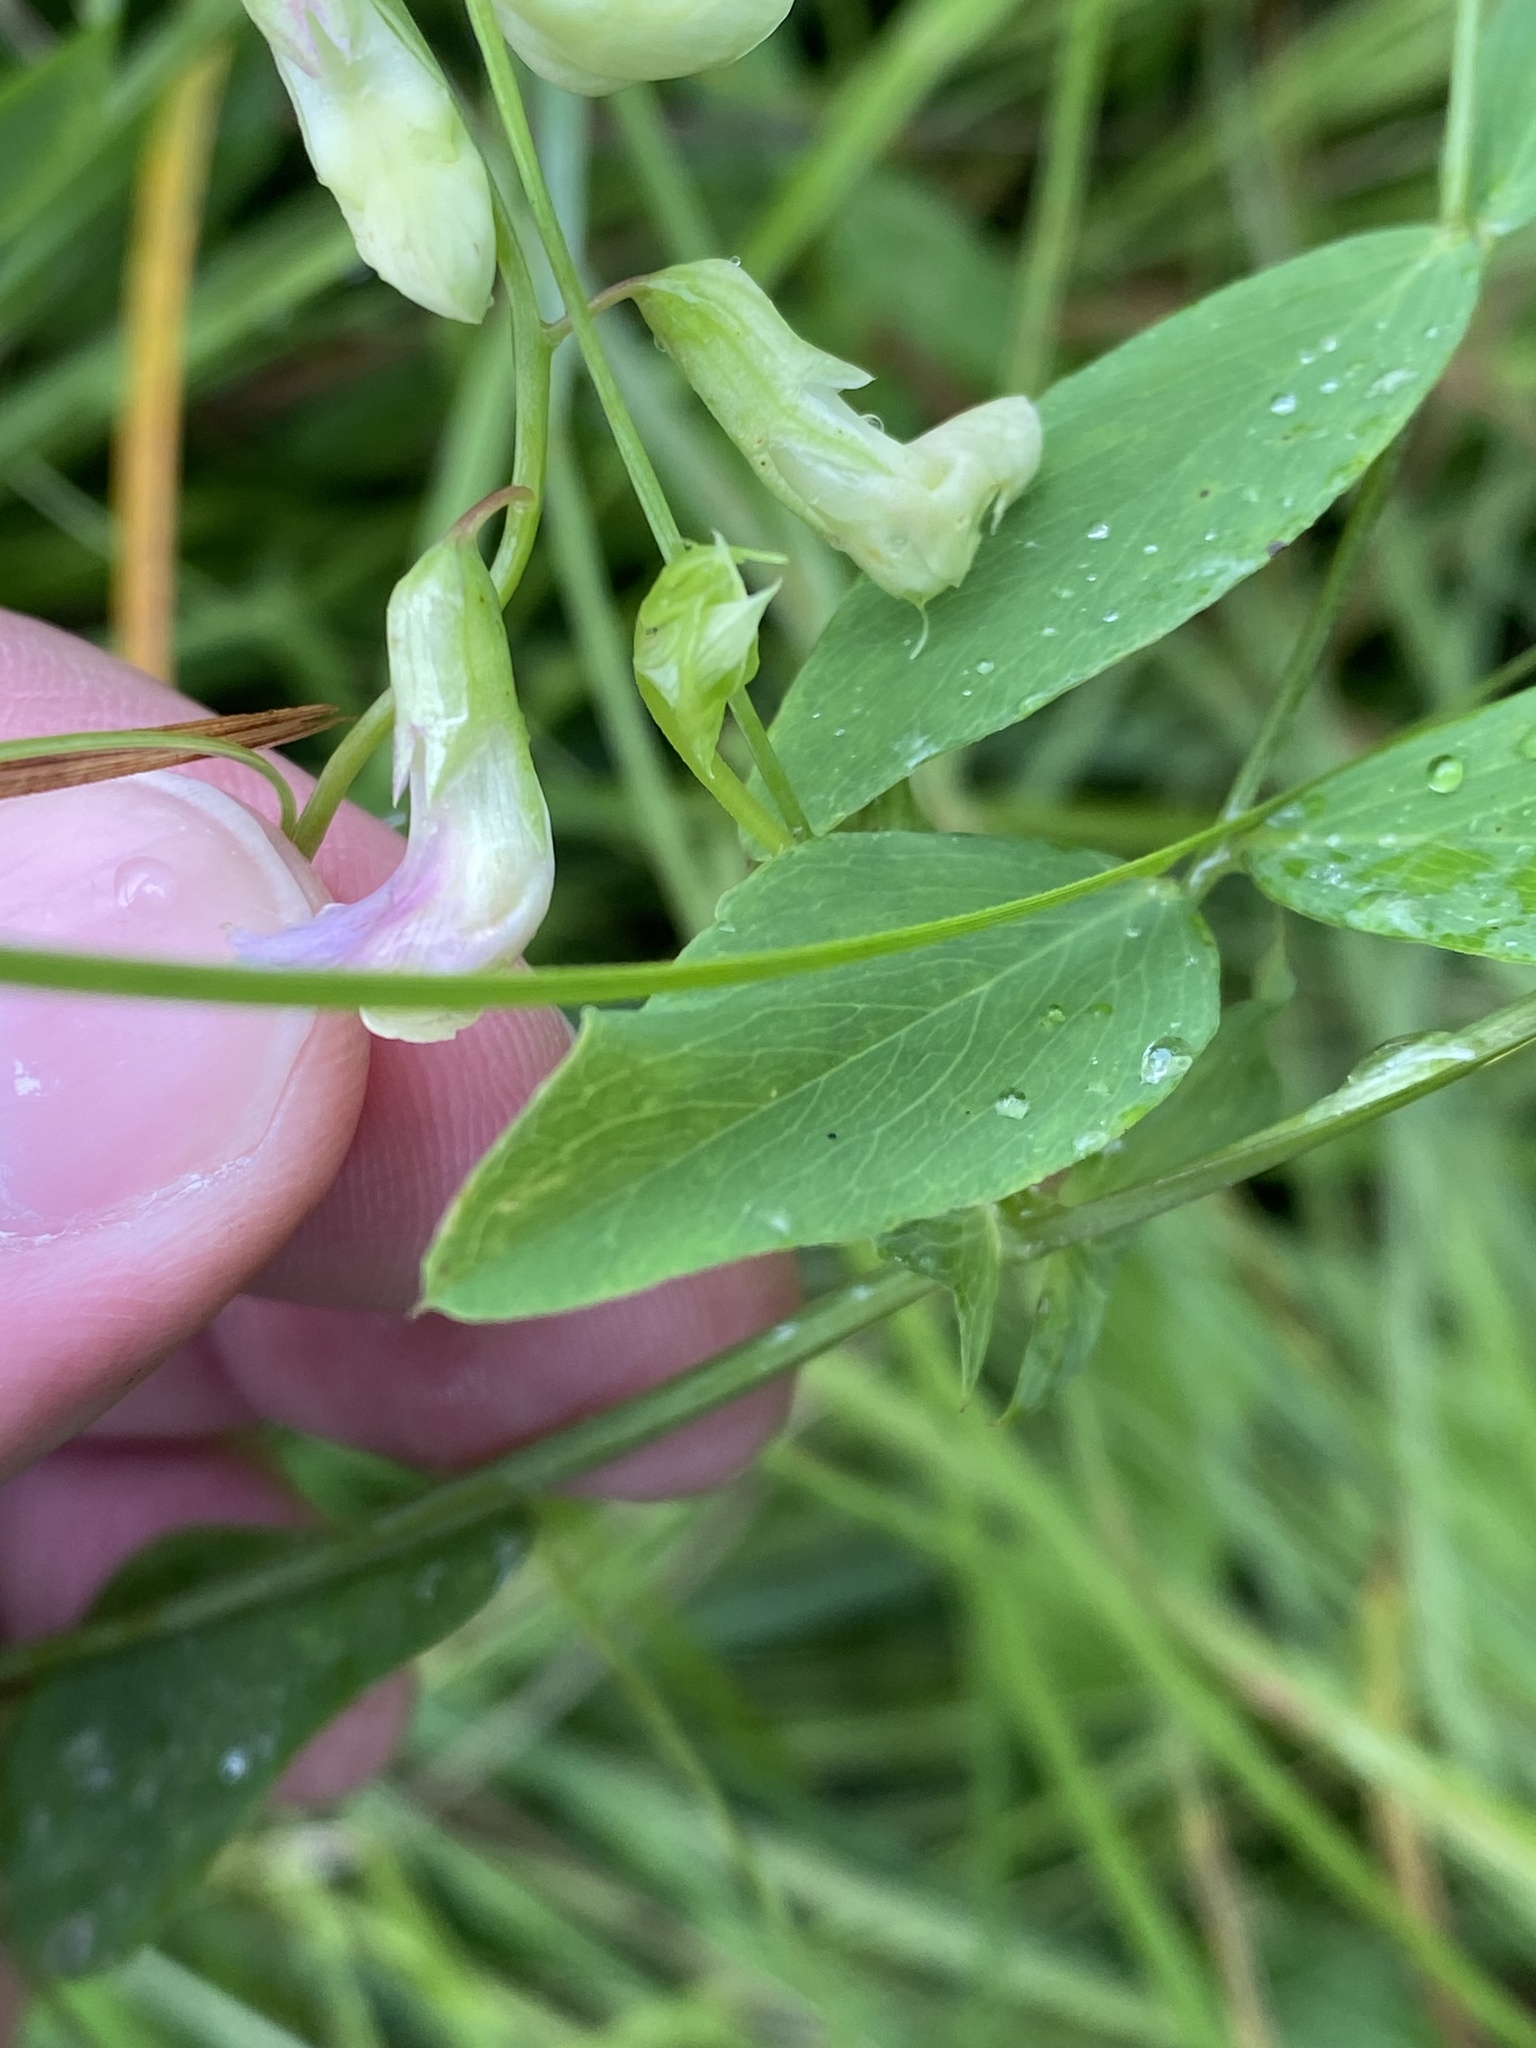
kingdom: Plantae
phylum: Tracheophyta
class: Magnoliopsida
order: Fabales
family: Fabaceae
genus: Lathyrus
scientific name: Lathyrus palustris
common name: Marsh pea
